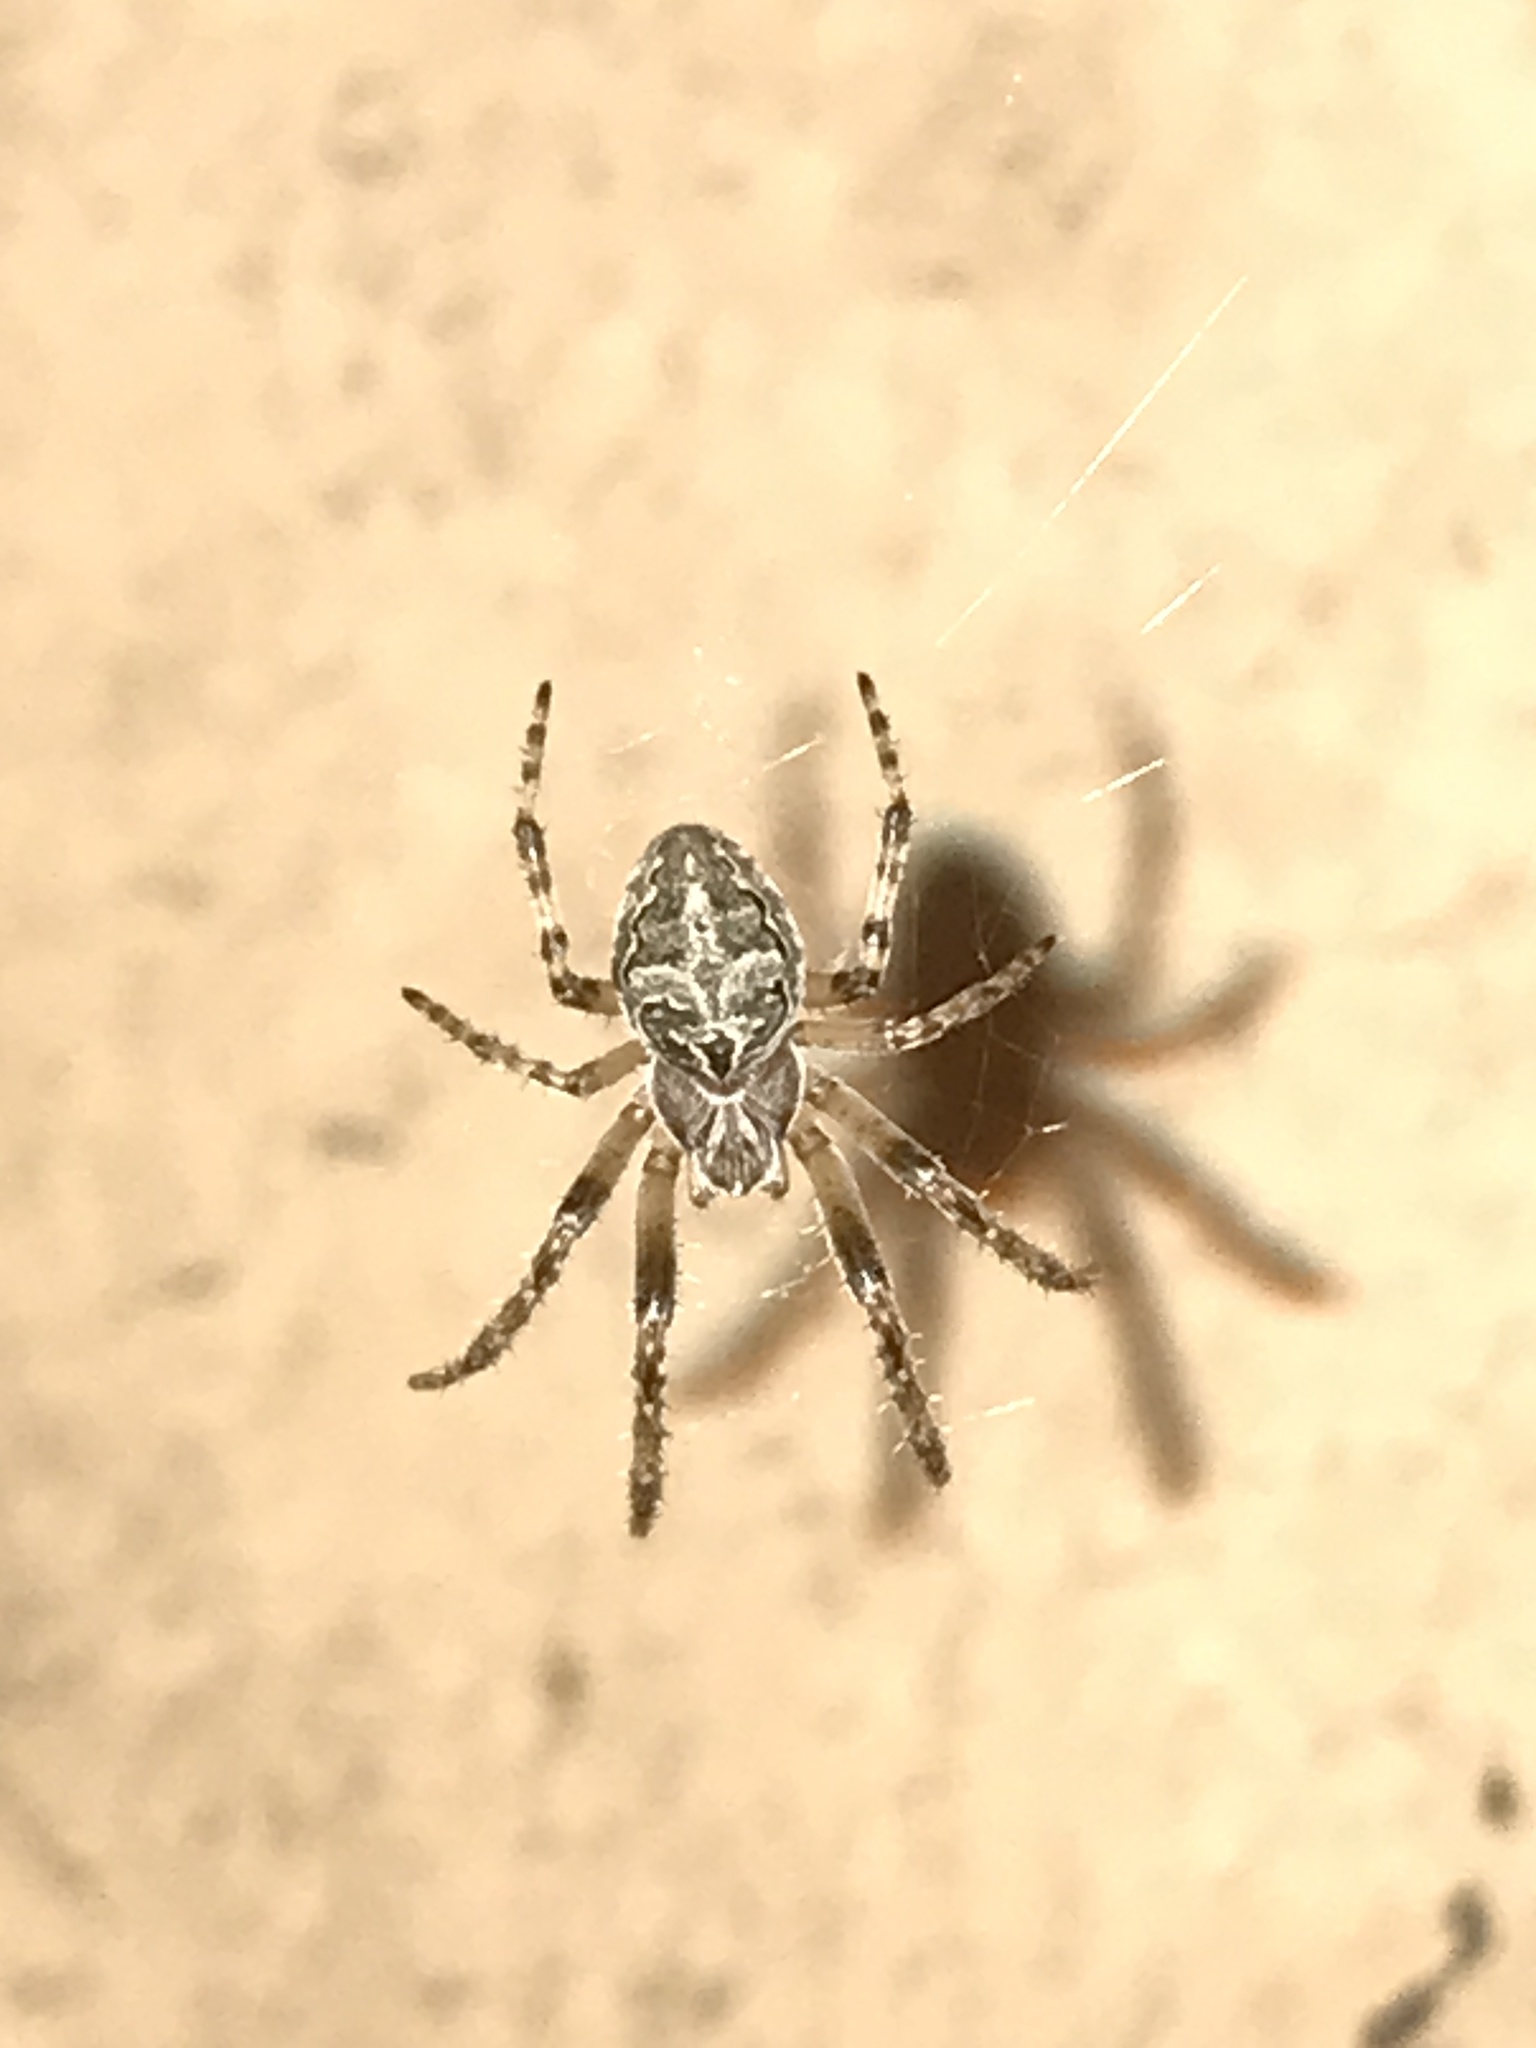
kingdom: Animalia
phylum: Arthropoda
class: Arachnida
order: Araneae
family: Araneidae
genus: Larinioides
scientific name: Larinioides sclopetarius
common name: Bridge orbweaver
